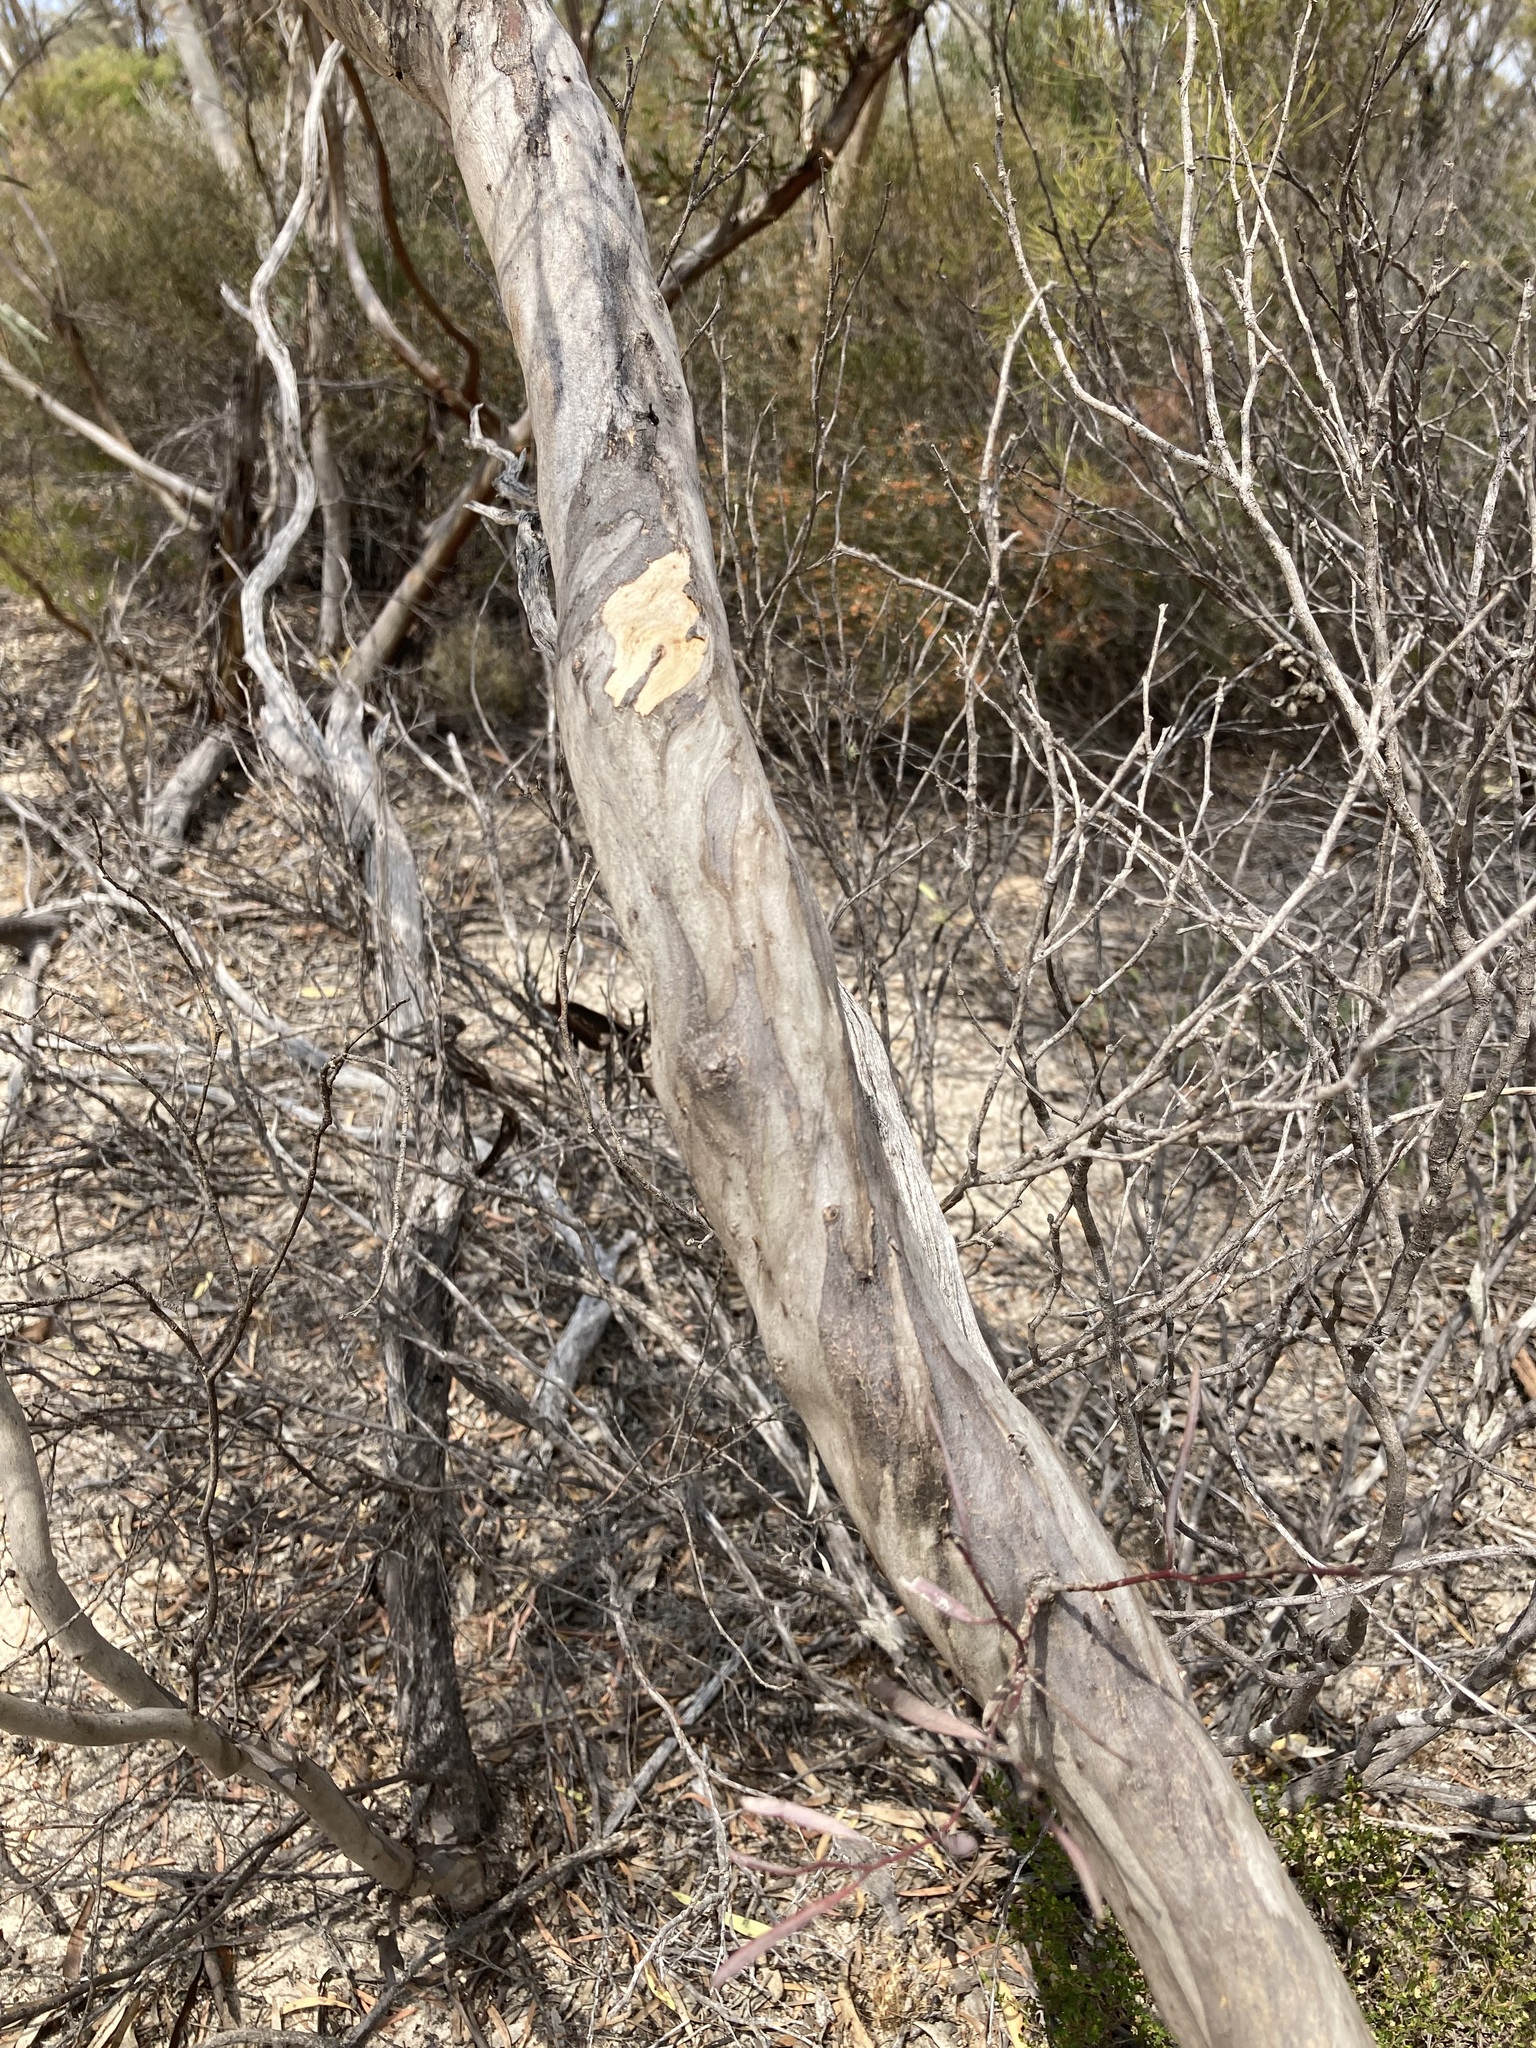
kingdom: Plantae
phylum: Tracheophyta
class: Magnoliopsida
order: Myrtales
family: Myrtaceae
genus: Eucalyptus
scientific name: Eucalyptus pileata
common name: Capped mallee
